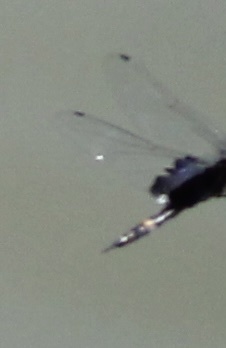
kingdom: Animalia
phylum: Arthropoda
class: Insecta
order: Odonata
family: Libellulidae
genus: Tramea
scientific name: Tramea lacerata
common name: Black saddlebags
